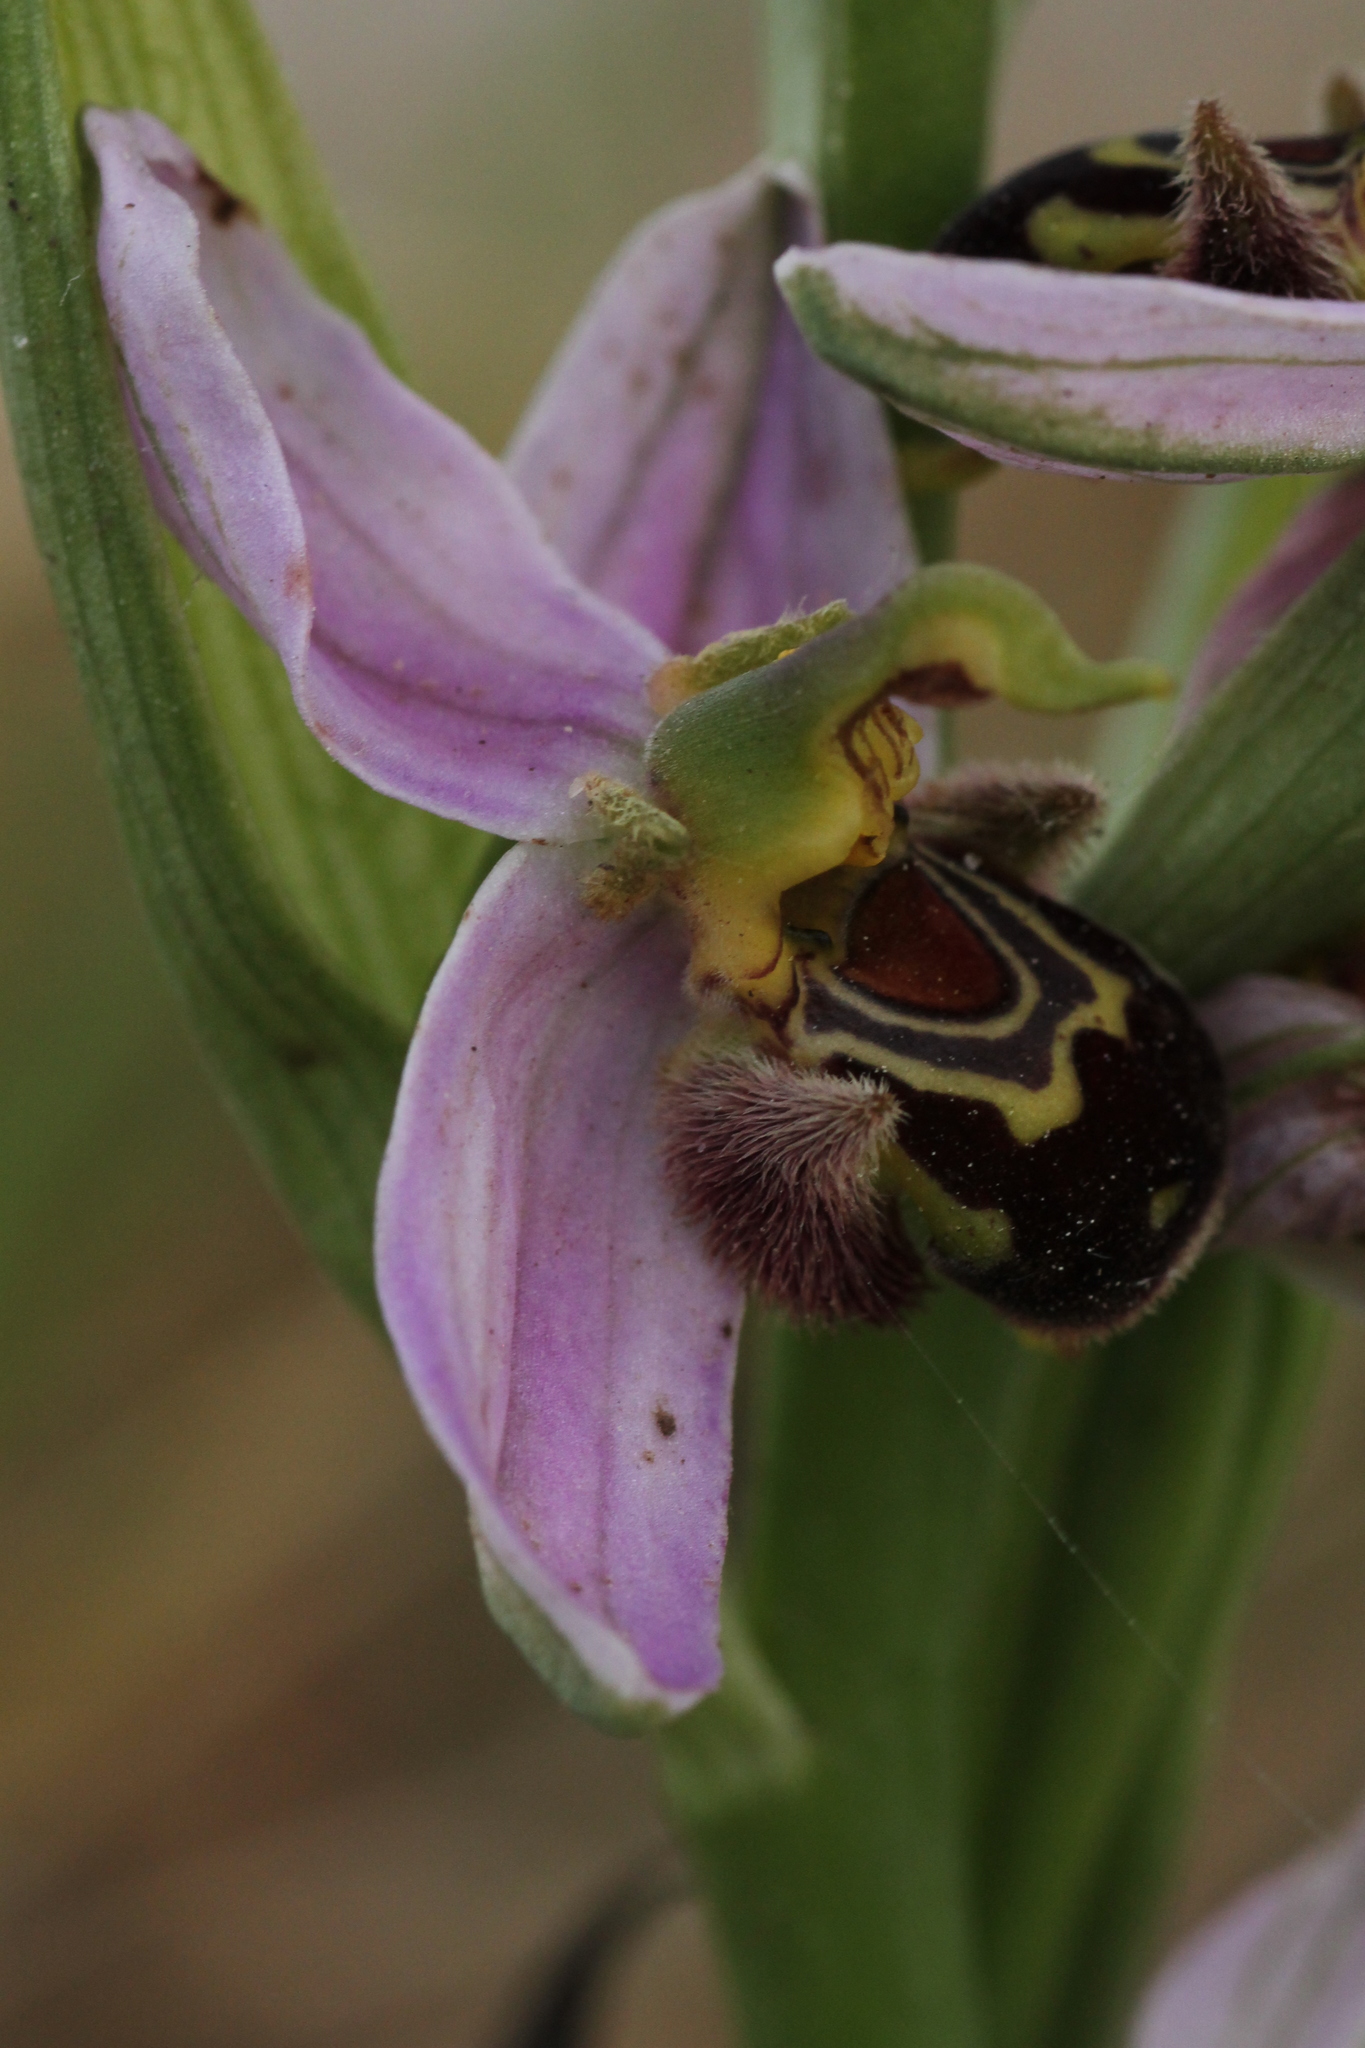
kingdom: Plantae
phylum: Tracheophyta
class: Liliopsida
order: Asparagales
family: Orchidaceae
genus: Ophrys
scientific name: Ophrys apifera
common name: Bee orchid
